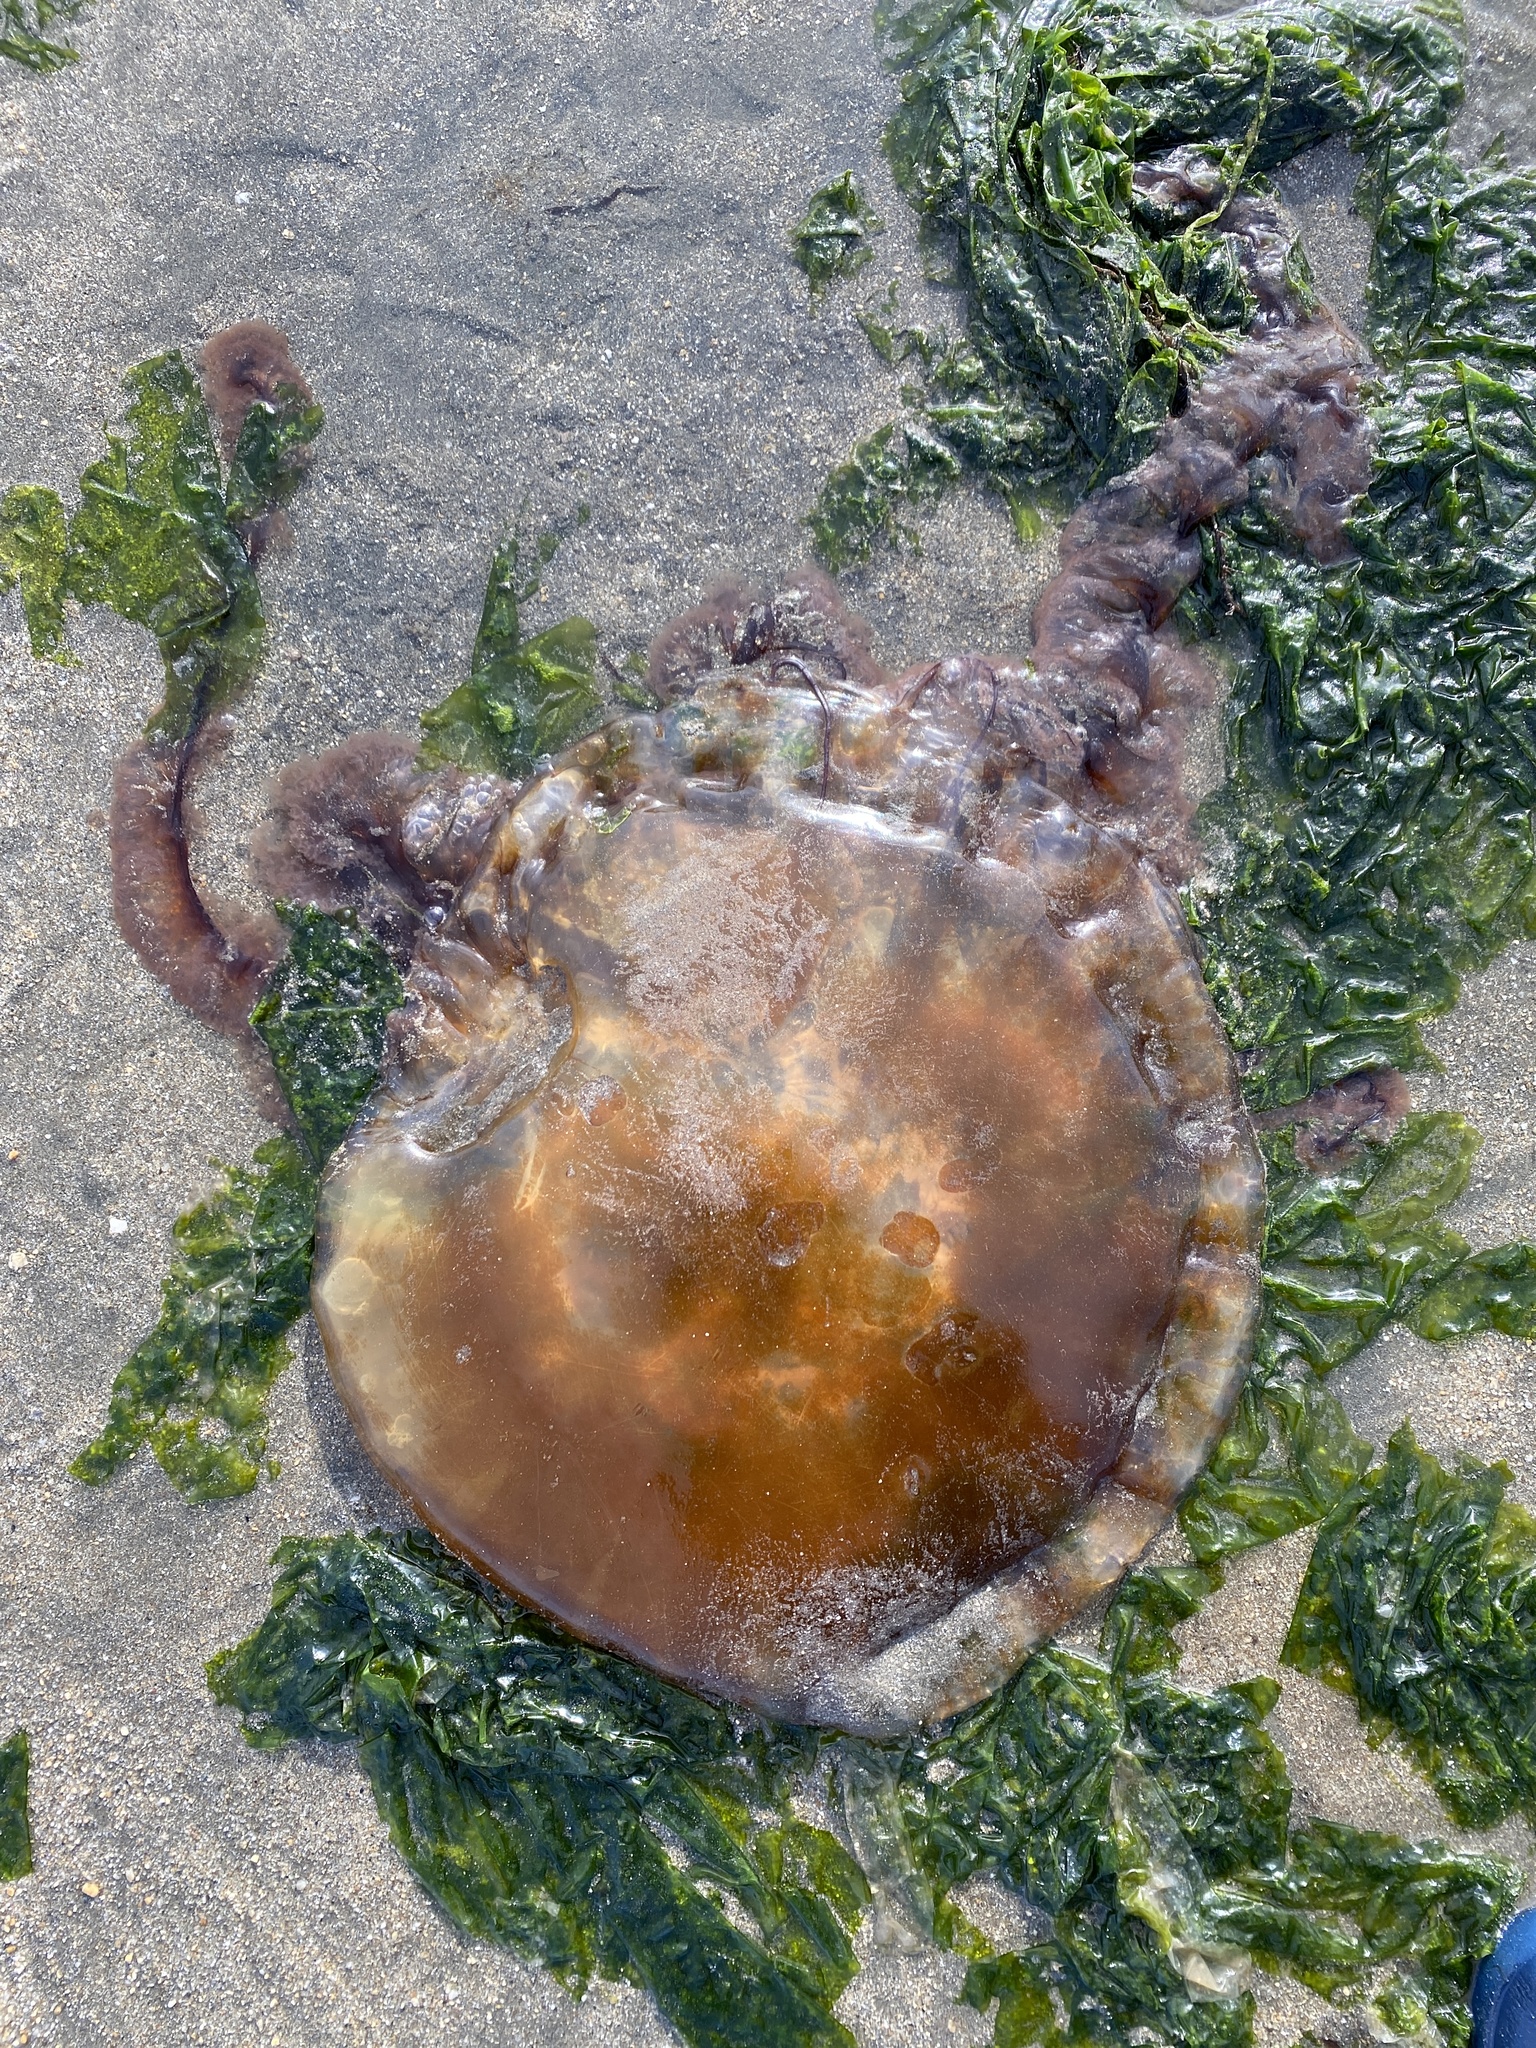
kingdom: Animalia
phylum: Cnidaria
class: Scyphozoa
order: Semaeostomeae
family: Pelagiidae
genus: Chrysaora
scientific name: Chrysaora fuscescens
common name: Sea nettle
